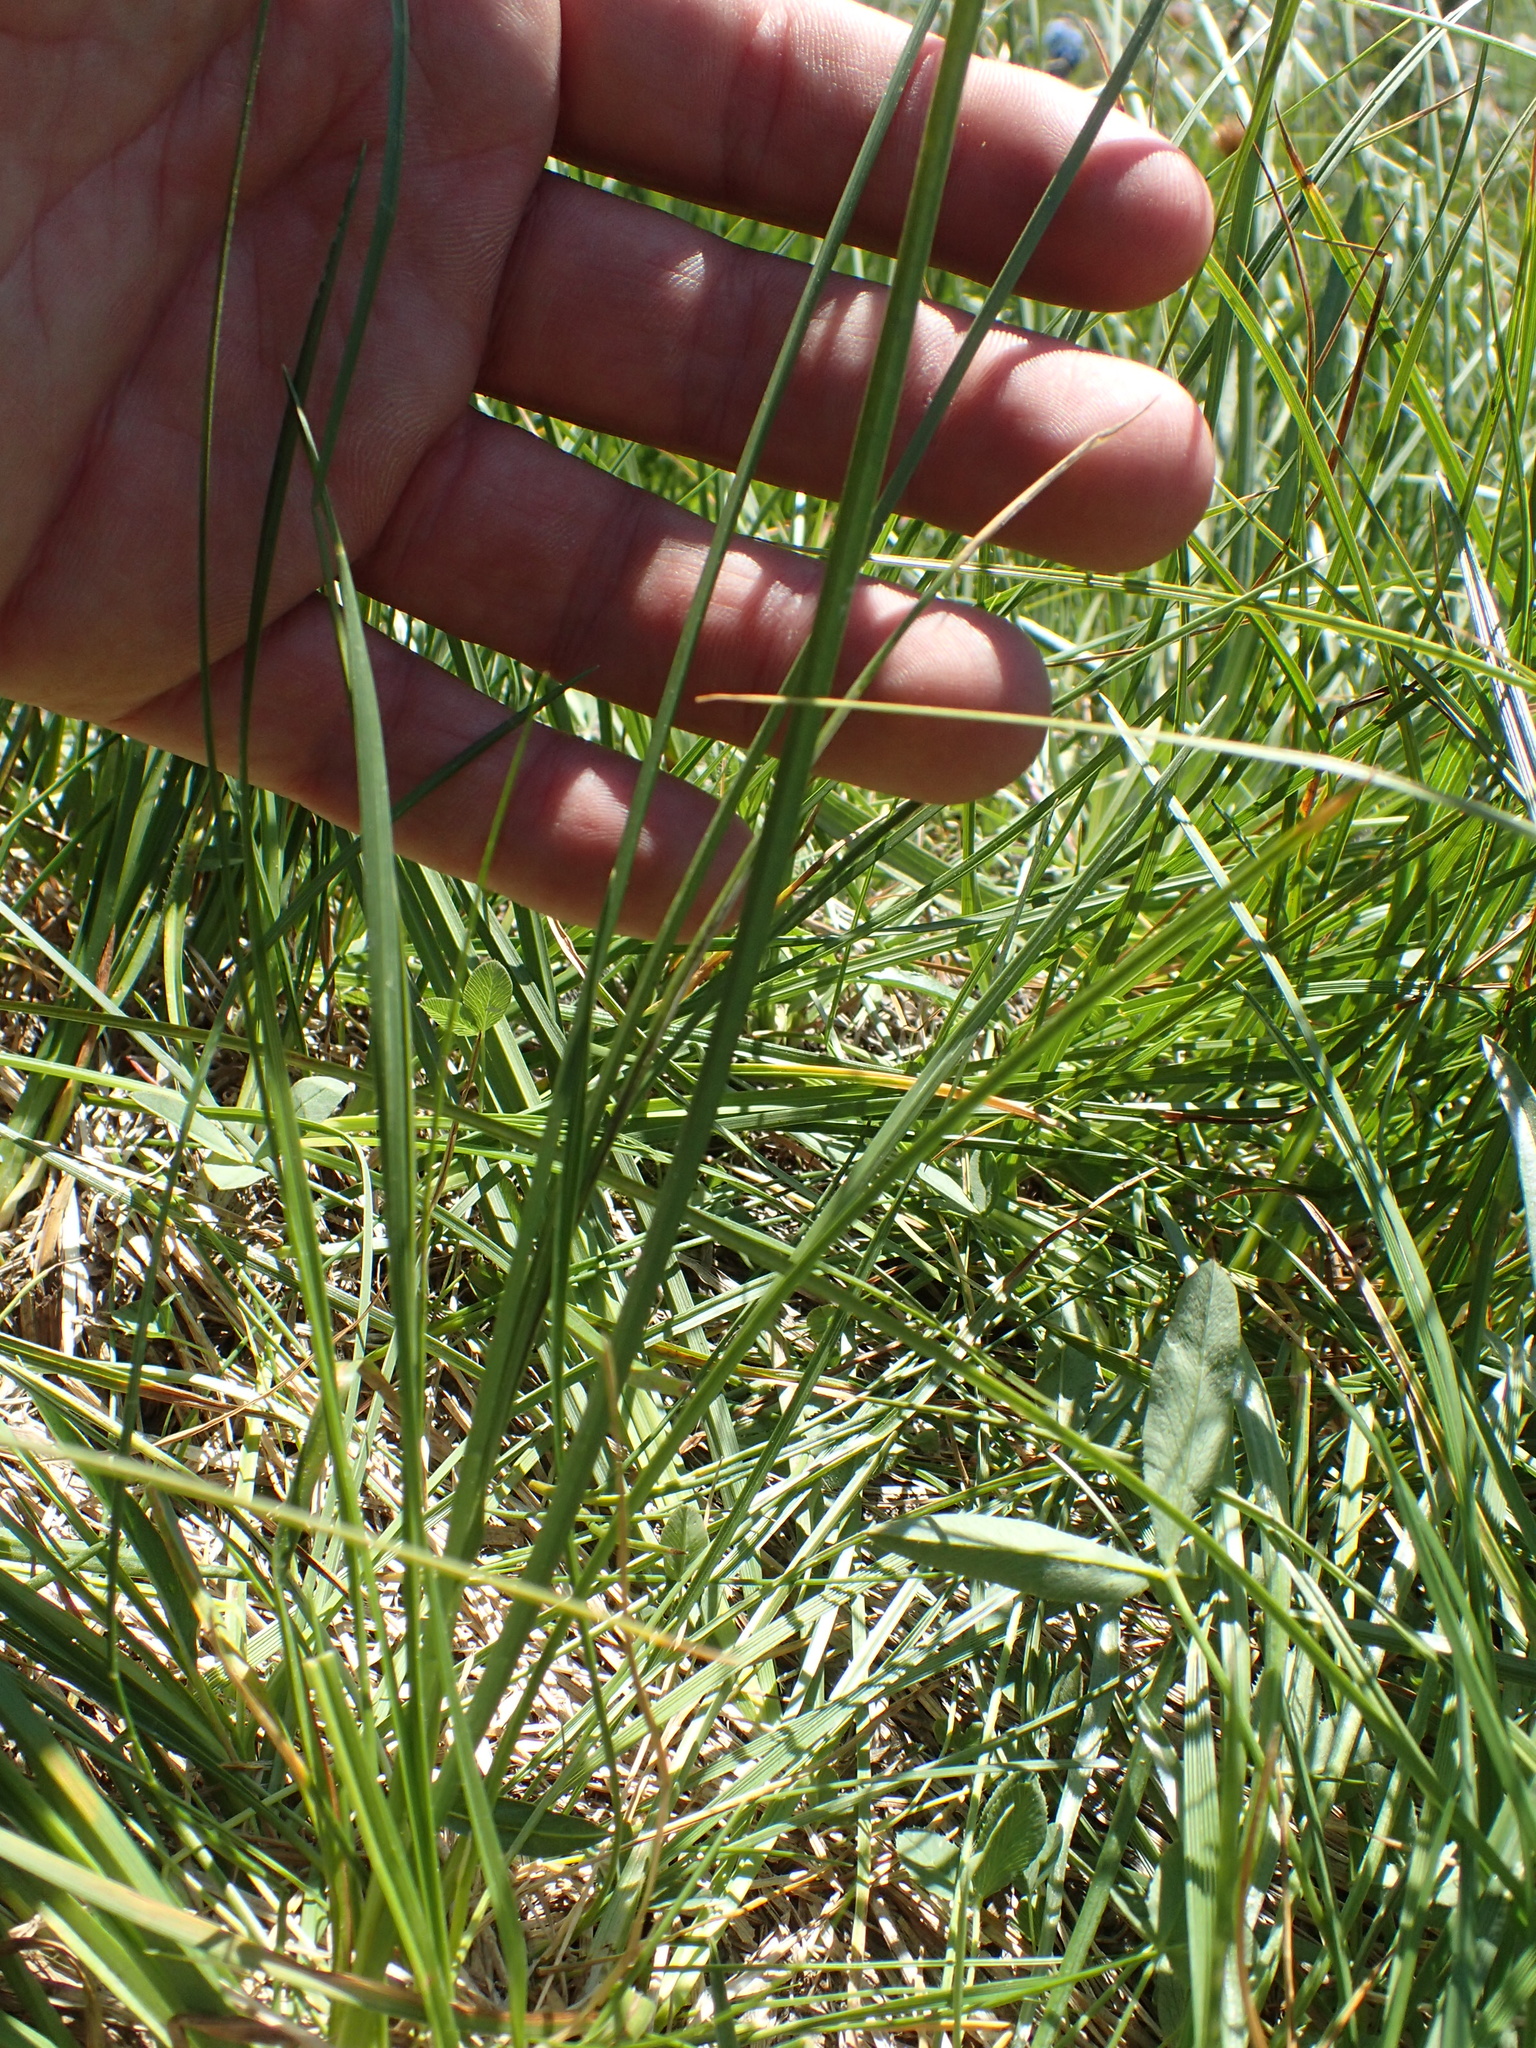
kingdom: Plantae
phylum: Tracheophyta
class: Liliopsida
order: Poales
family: Cyperaceae
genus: Carex
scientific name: Carex scabriuscula
